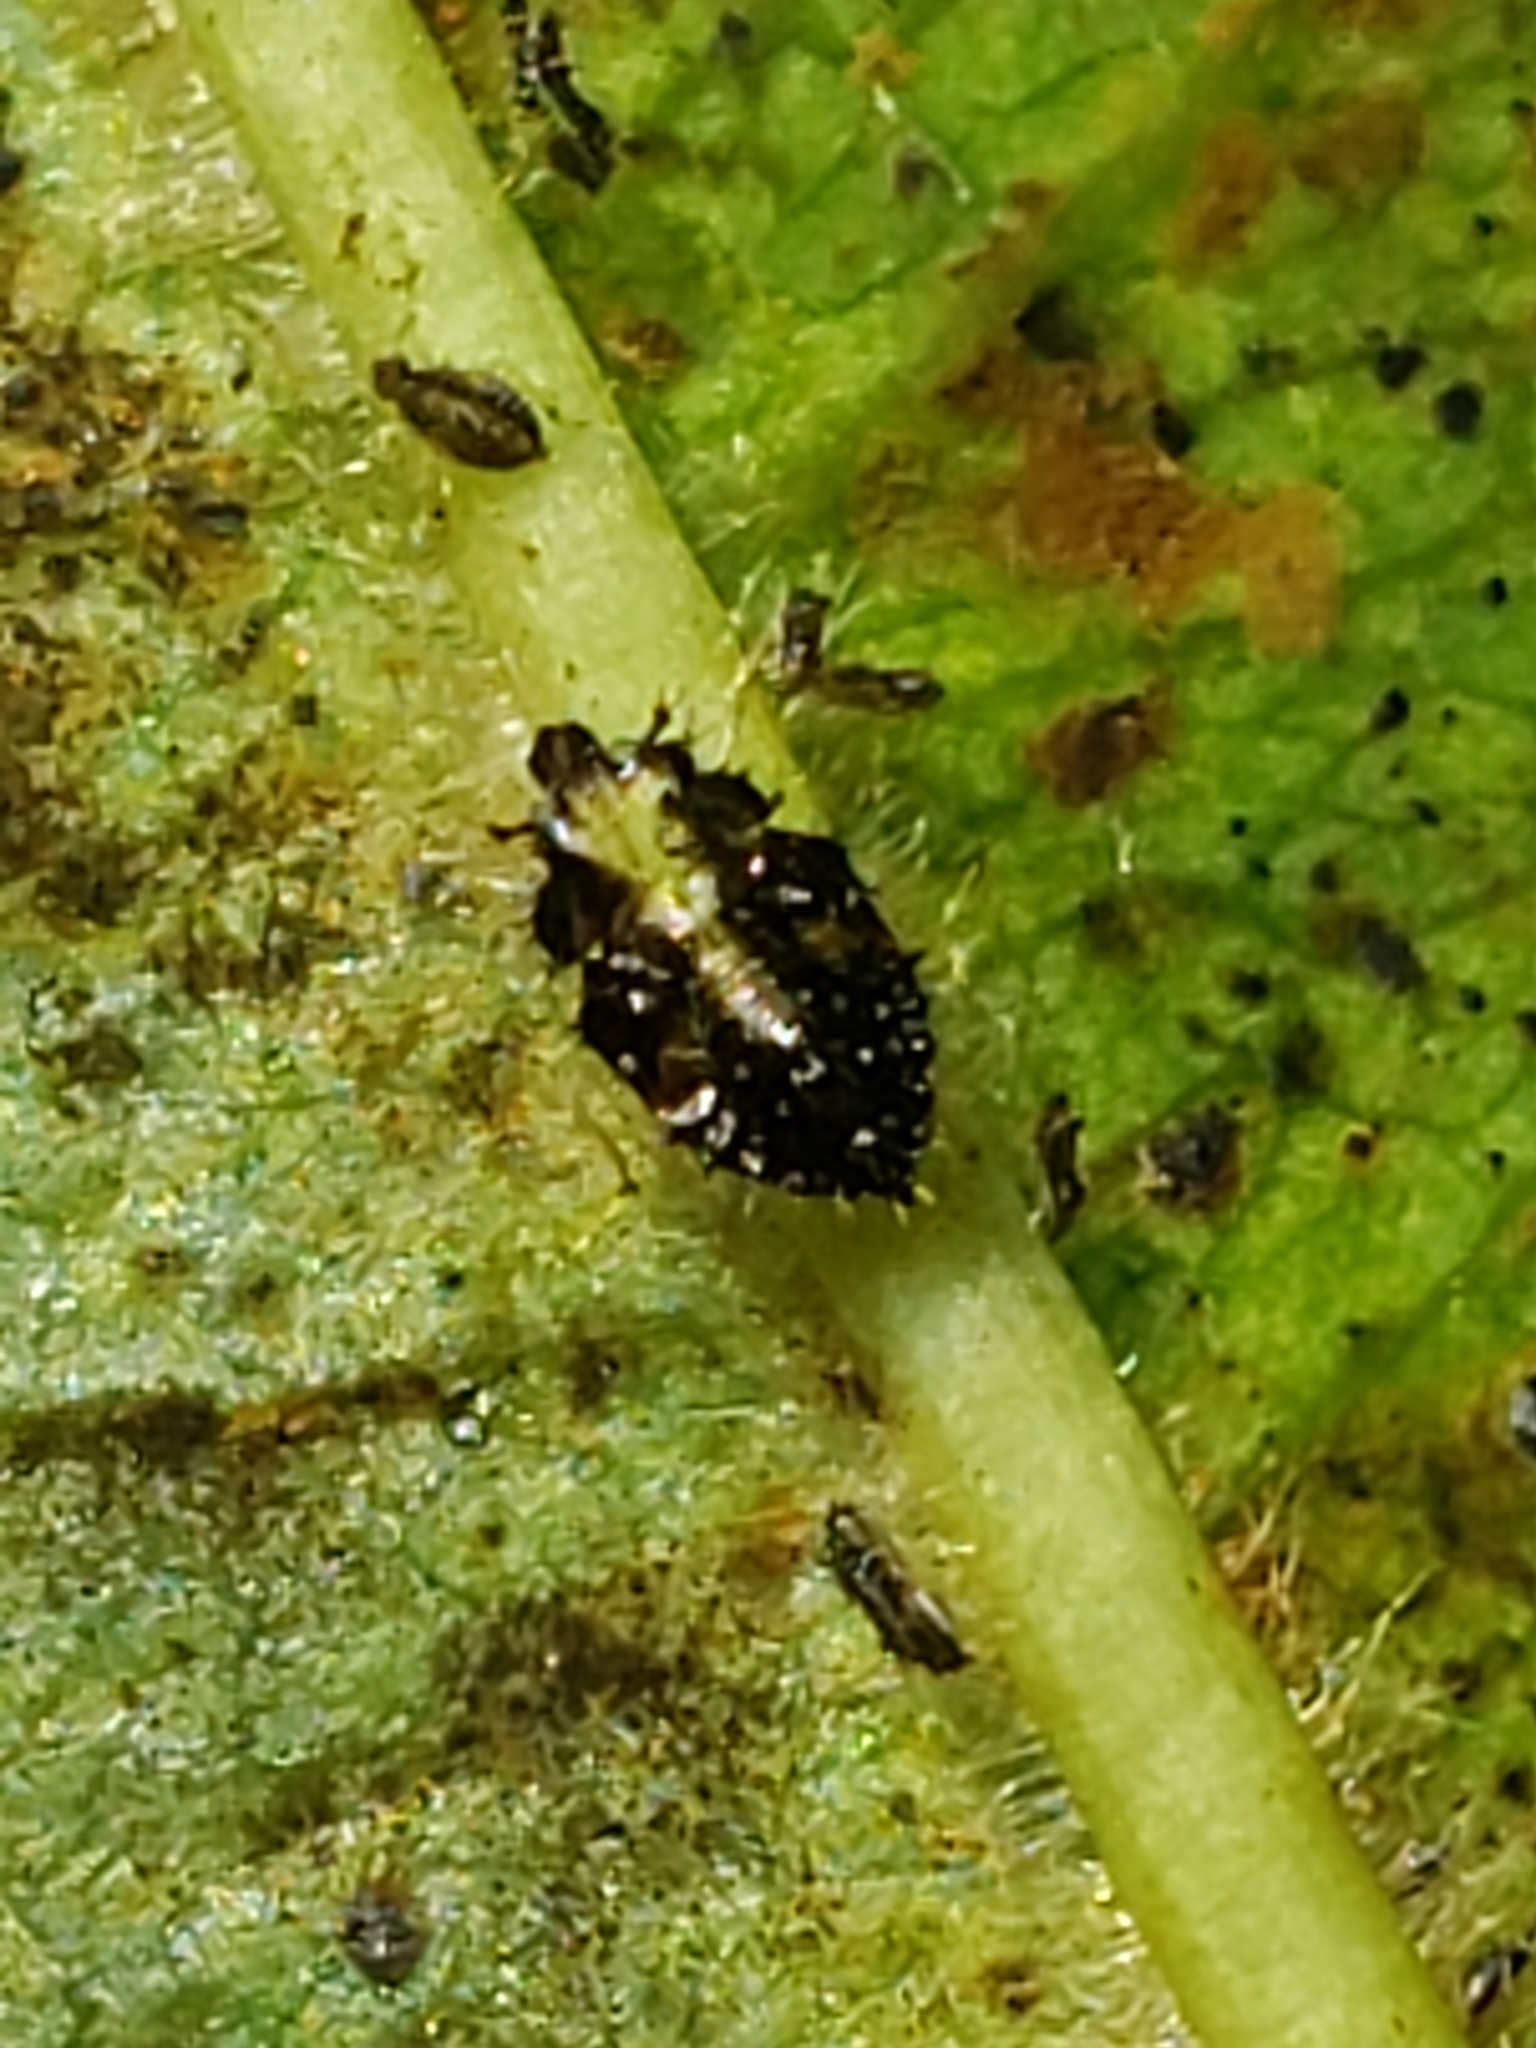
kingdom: Animalia
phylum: Arthropoda
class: Insecta
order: Hemiptera
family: Tingidae
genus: Corythucha
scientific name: Corythucha associata
